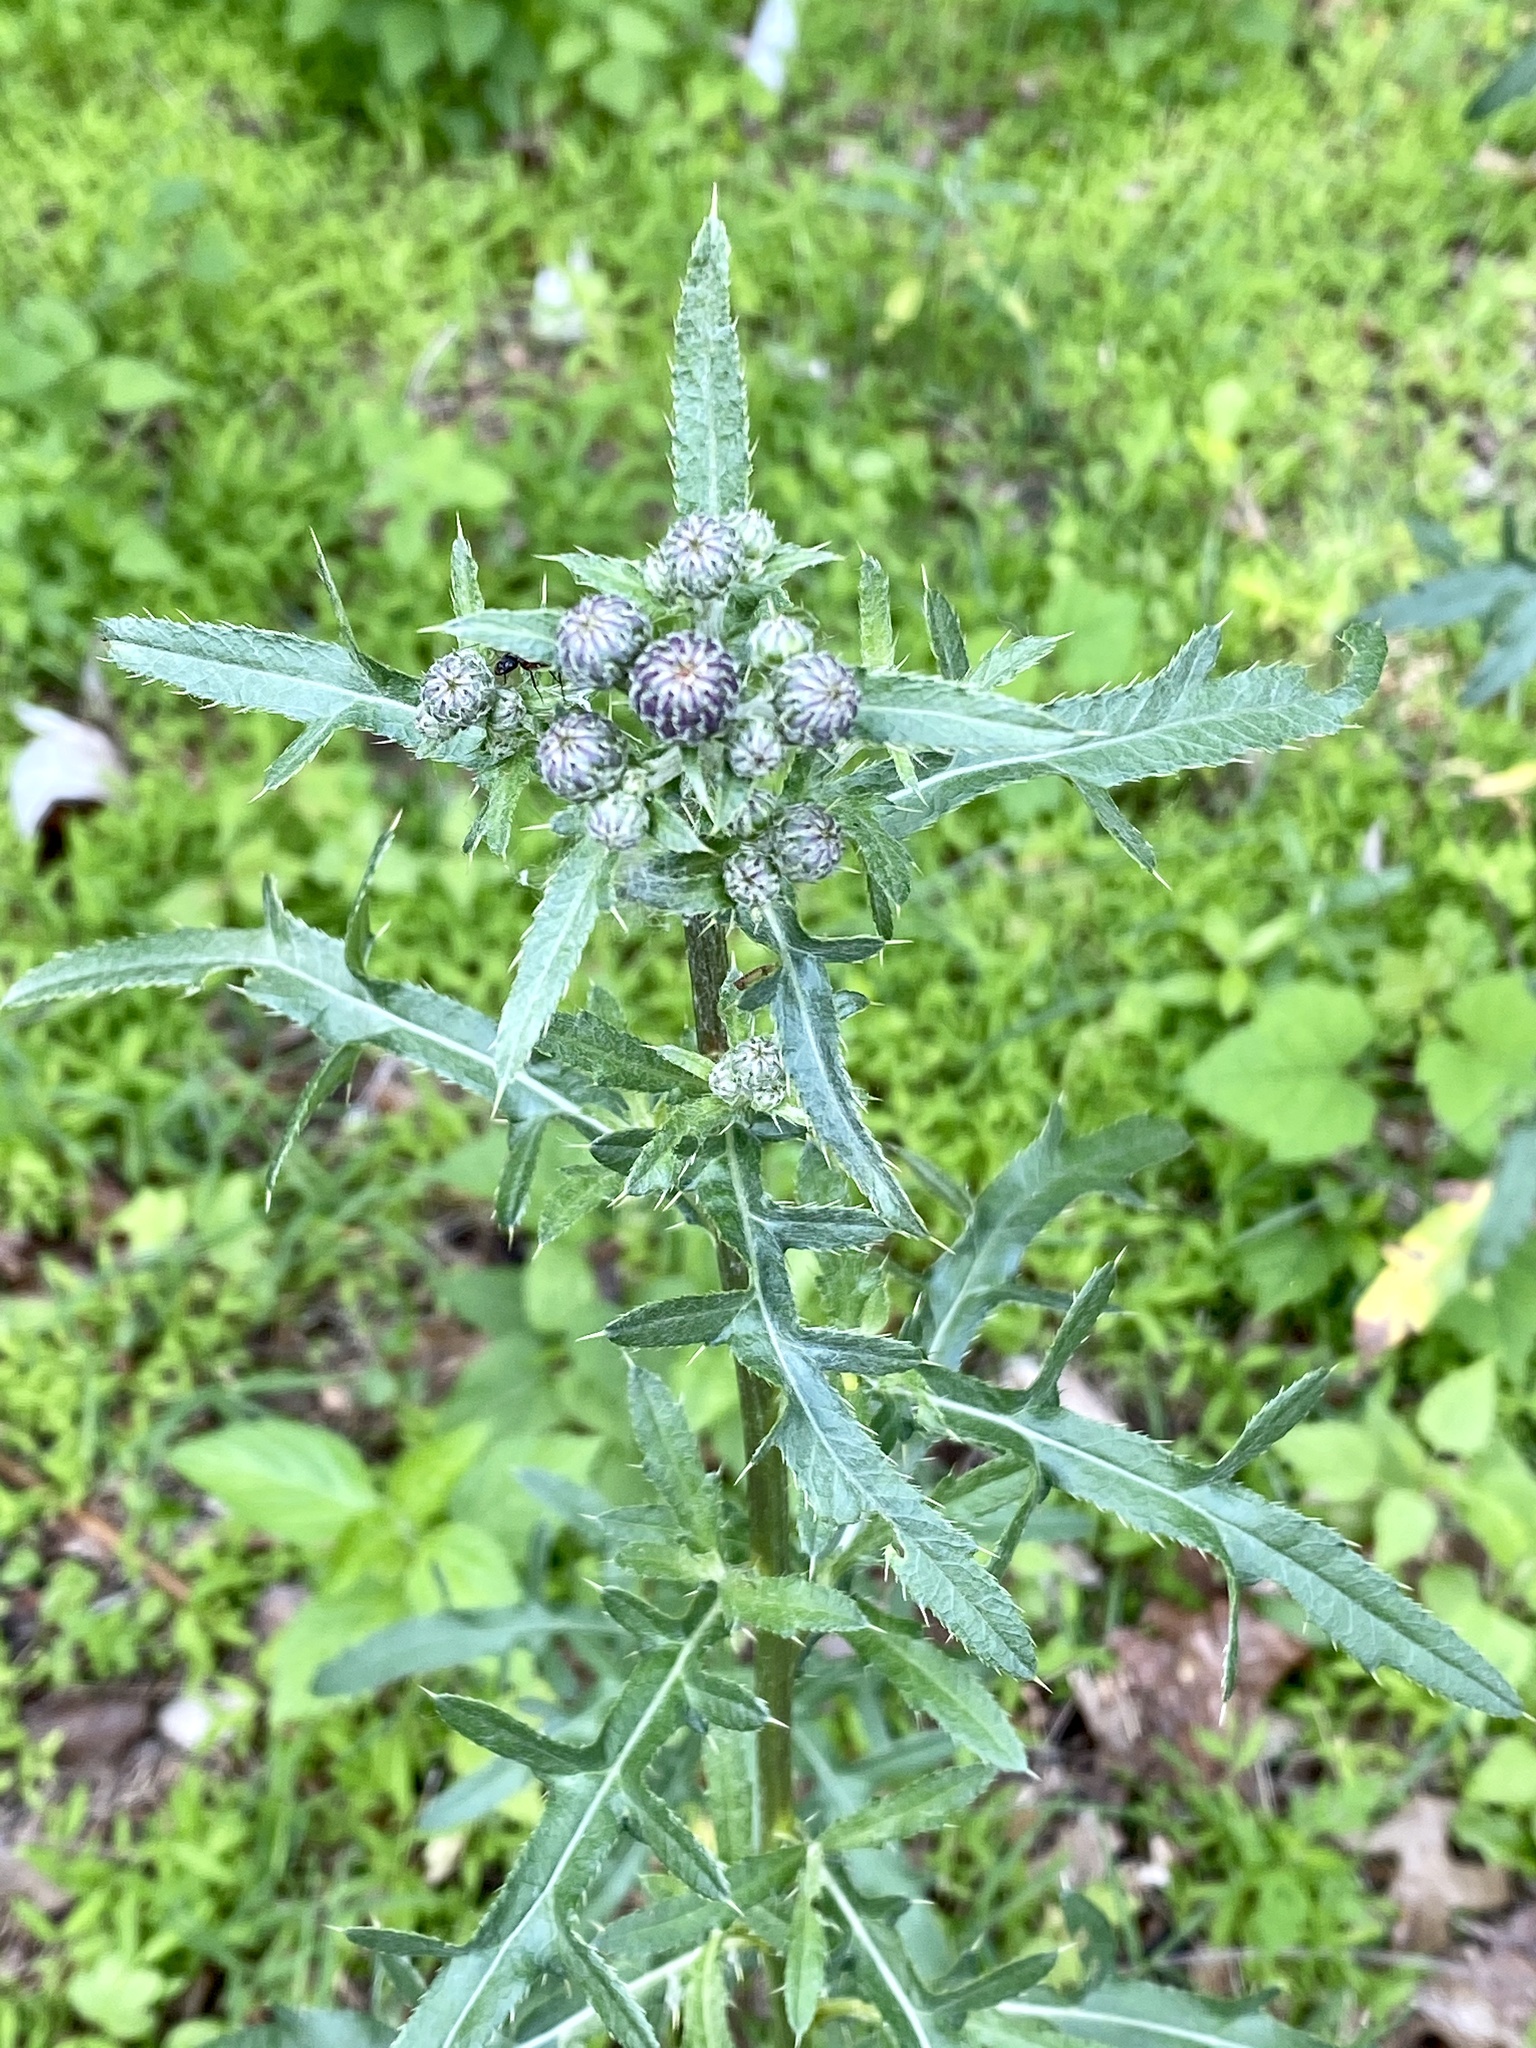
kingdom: Plantae
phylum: Tracheophyta
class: Magnoliopsida
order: Asterales
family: Asteraceae
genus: Cirsium
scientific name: Cirsium arvense
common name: Creeping thistle
